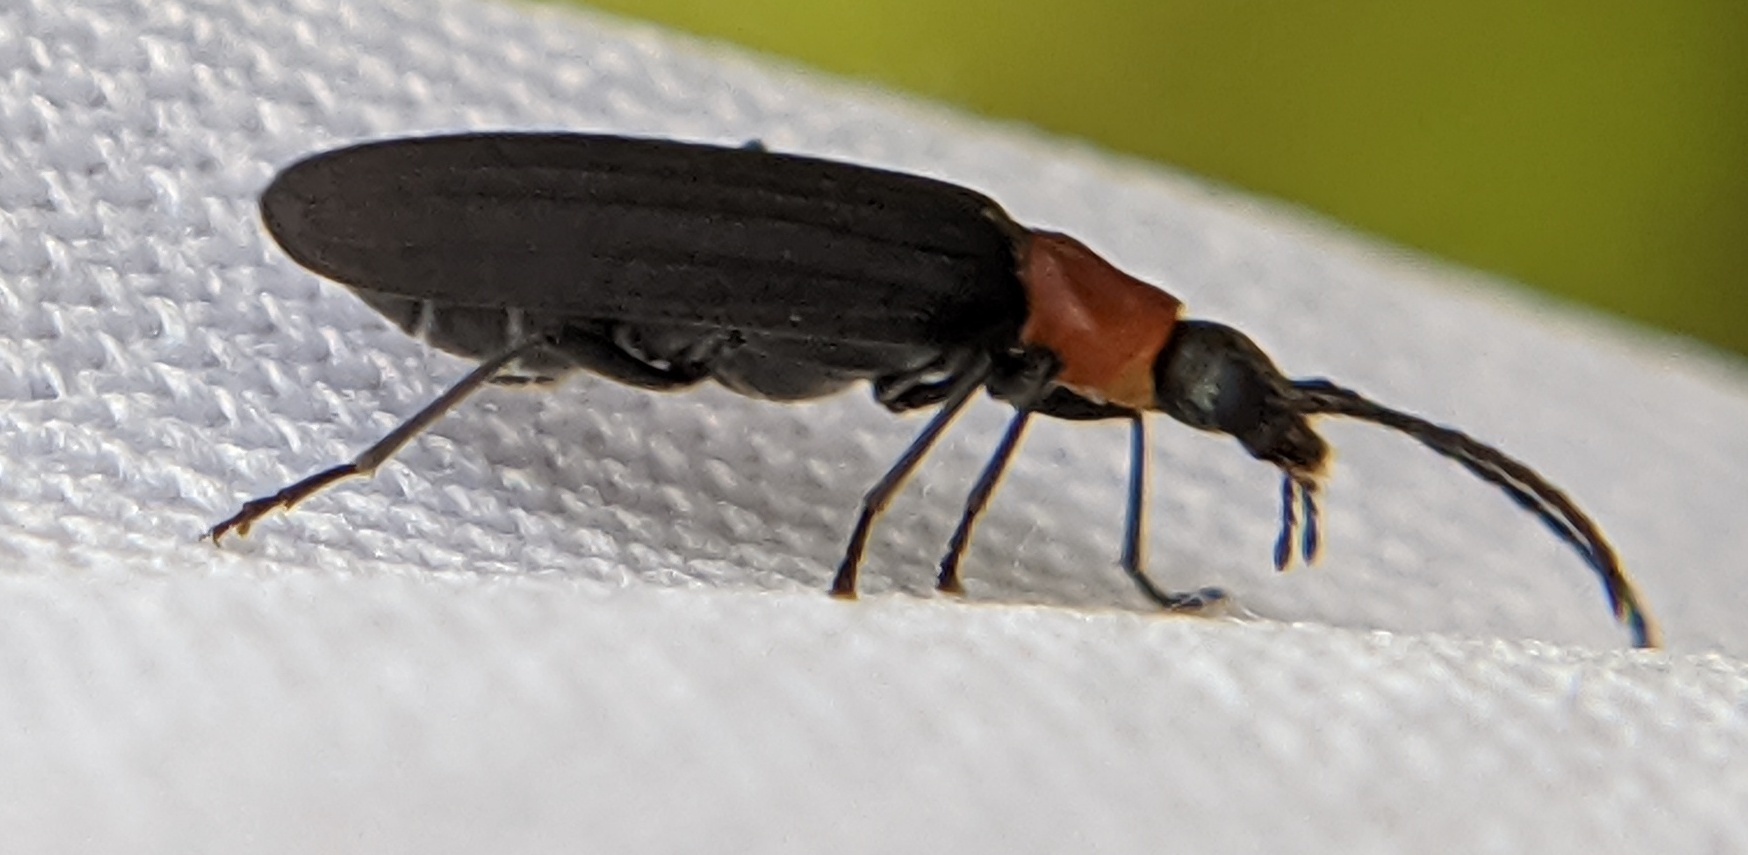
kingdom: Animalia
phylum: Arthropoda
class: Insecta
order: Coleoptera
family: Oedemeridae
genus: Ischnomera
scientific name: Ischnomera
